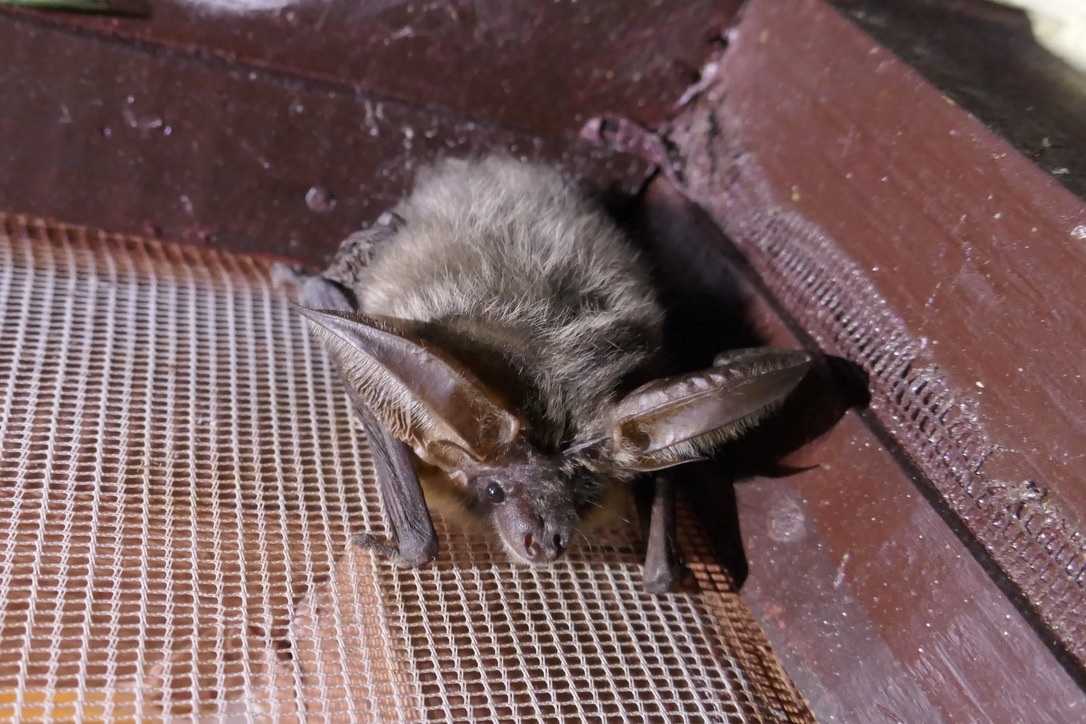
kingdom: Animalia
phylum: Chordata
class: Mammalia
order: Chiroptera
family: Vespertilionidae
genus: Plecotus
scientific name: Plecotus austriacus
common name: Grey long-eared bat
